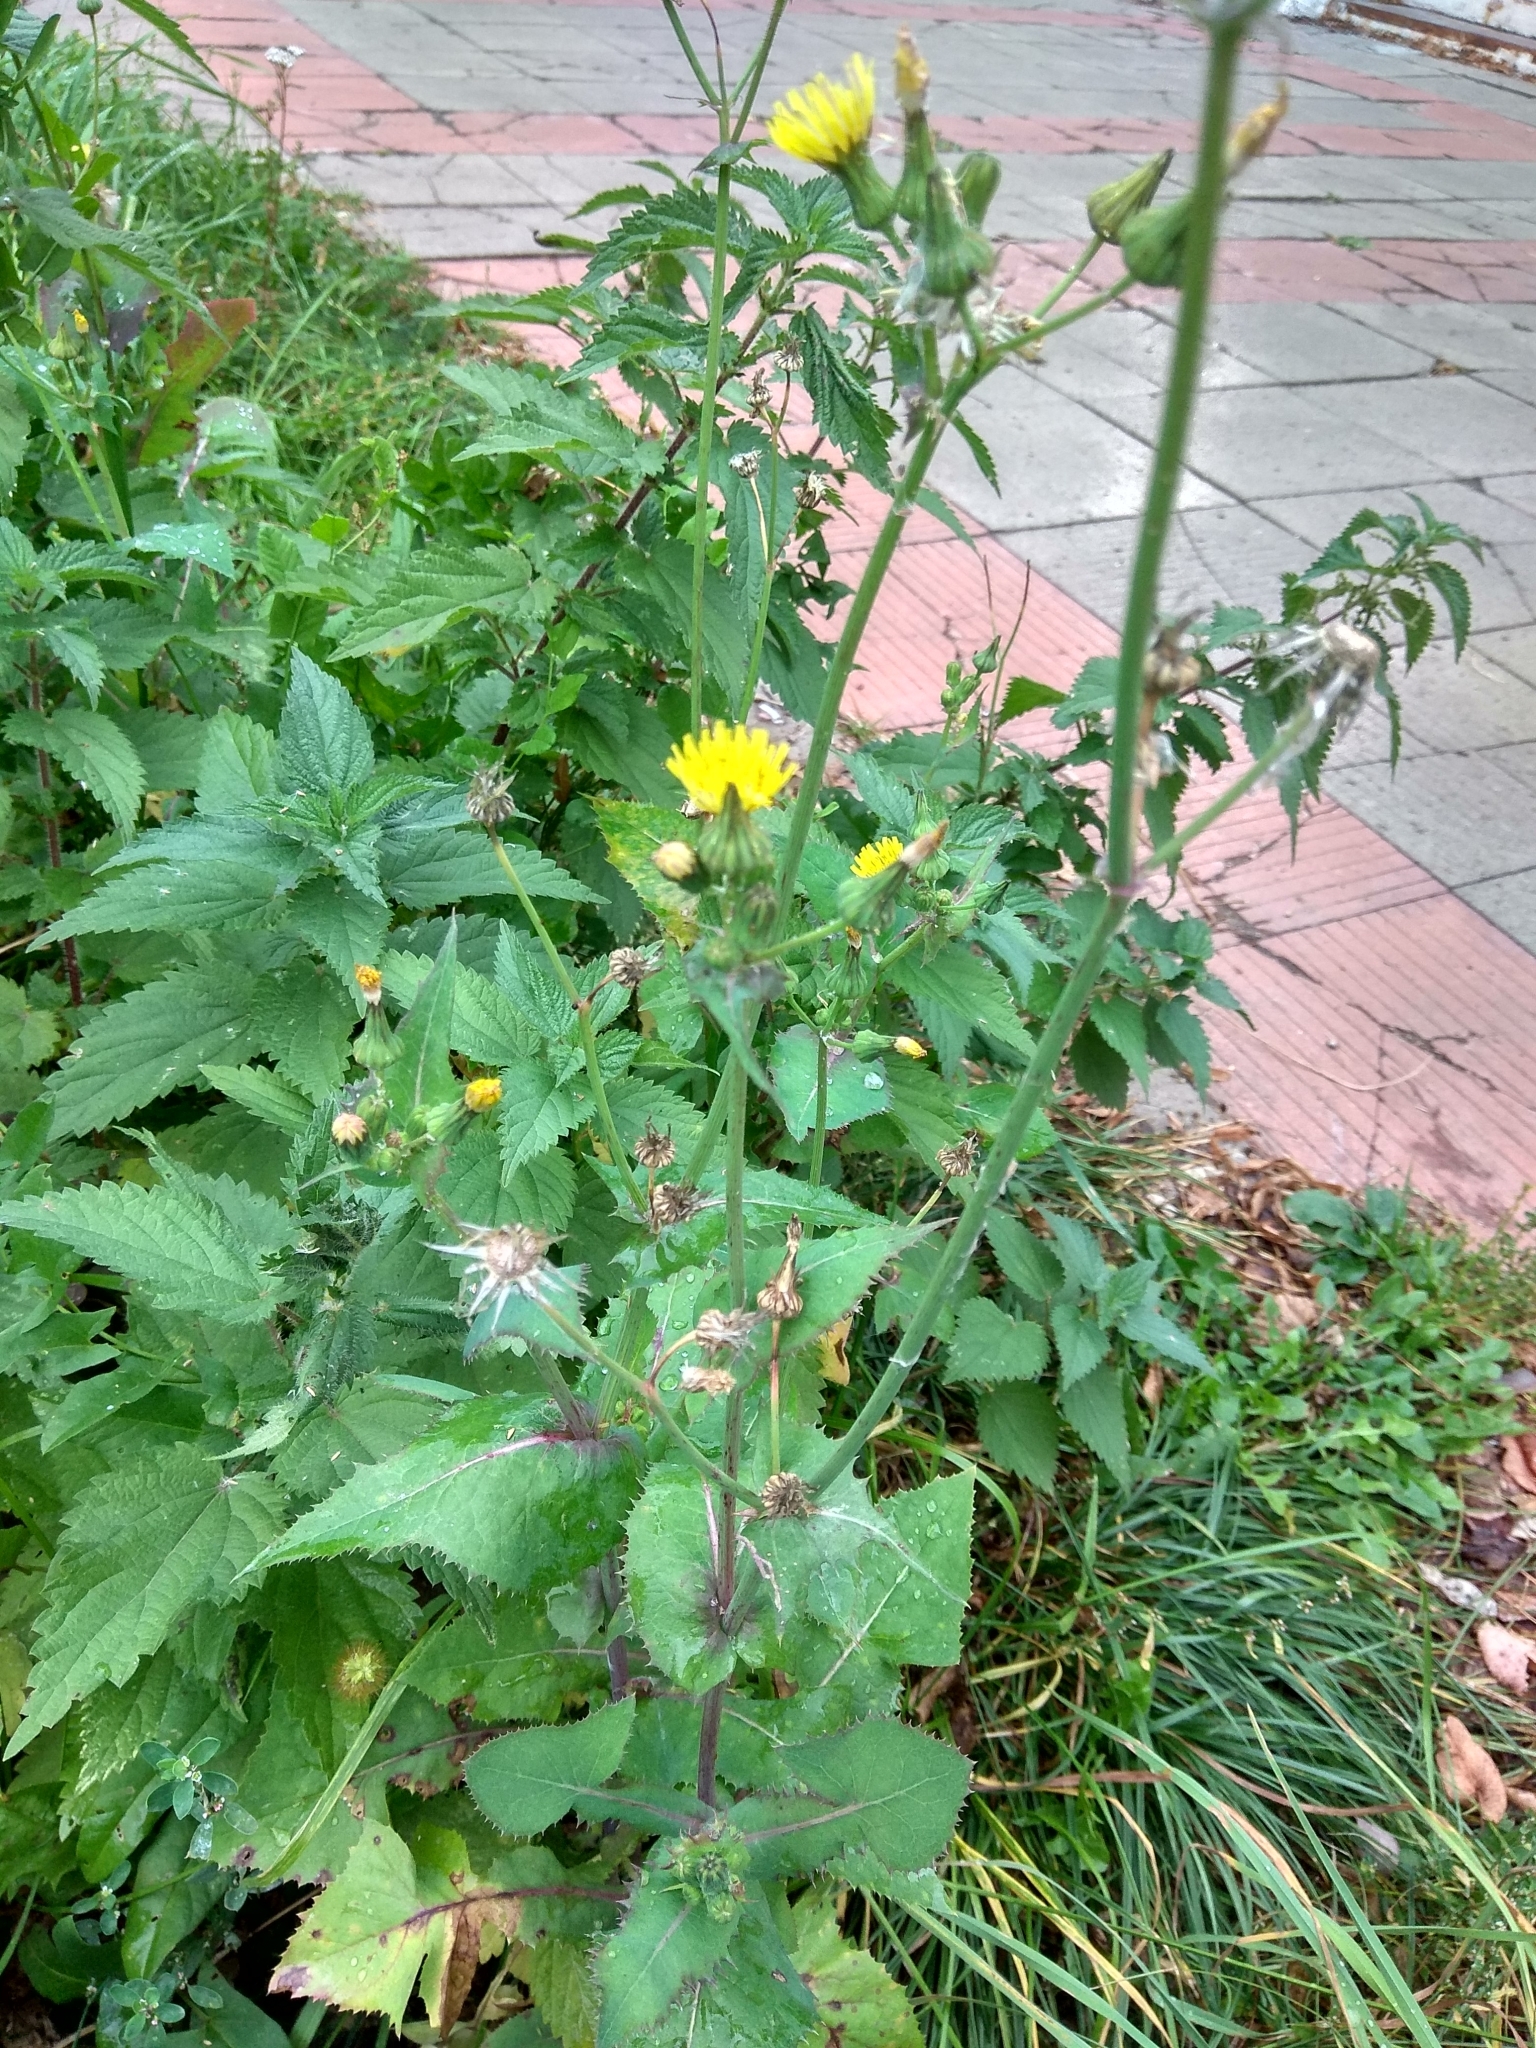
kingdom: Plantae
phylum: Tracheophyta
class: Magnoliopsida
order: Asterales
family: Asteraceae
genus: Sonchus
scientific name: Sonchus oleraceus
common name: Common sowthistle
